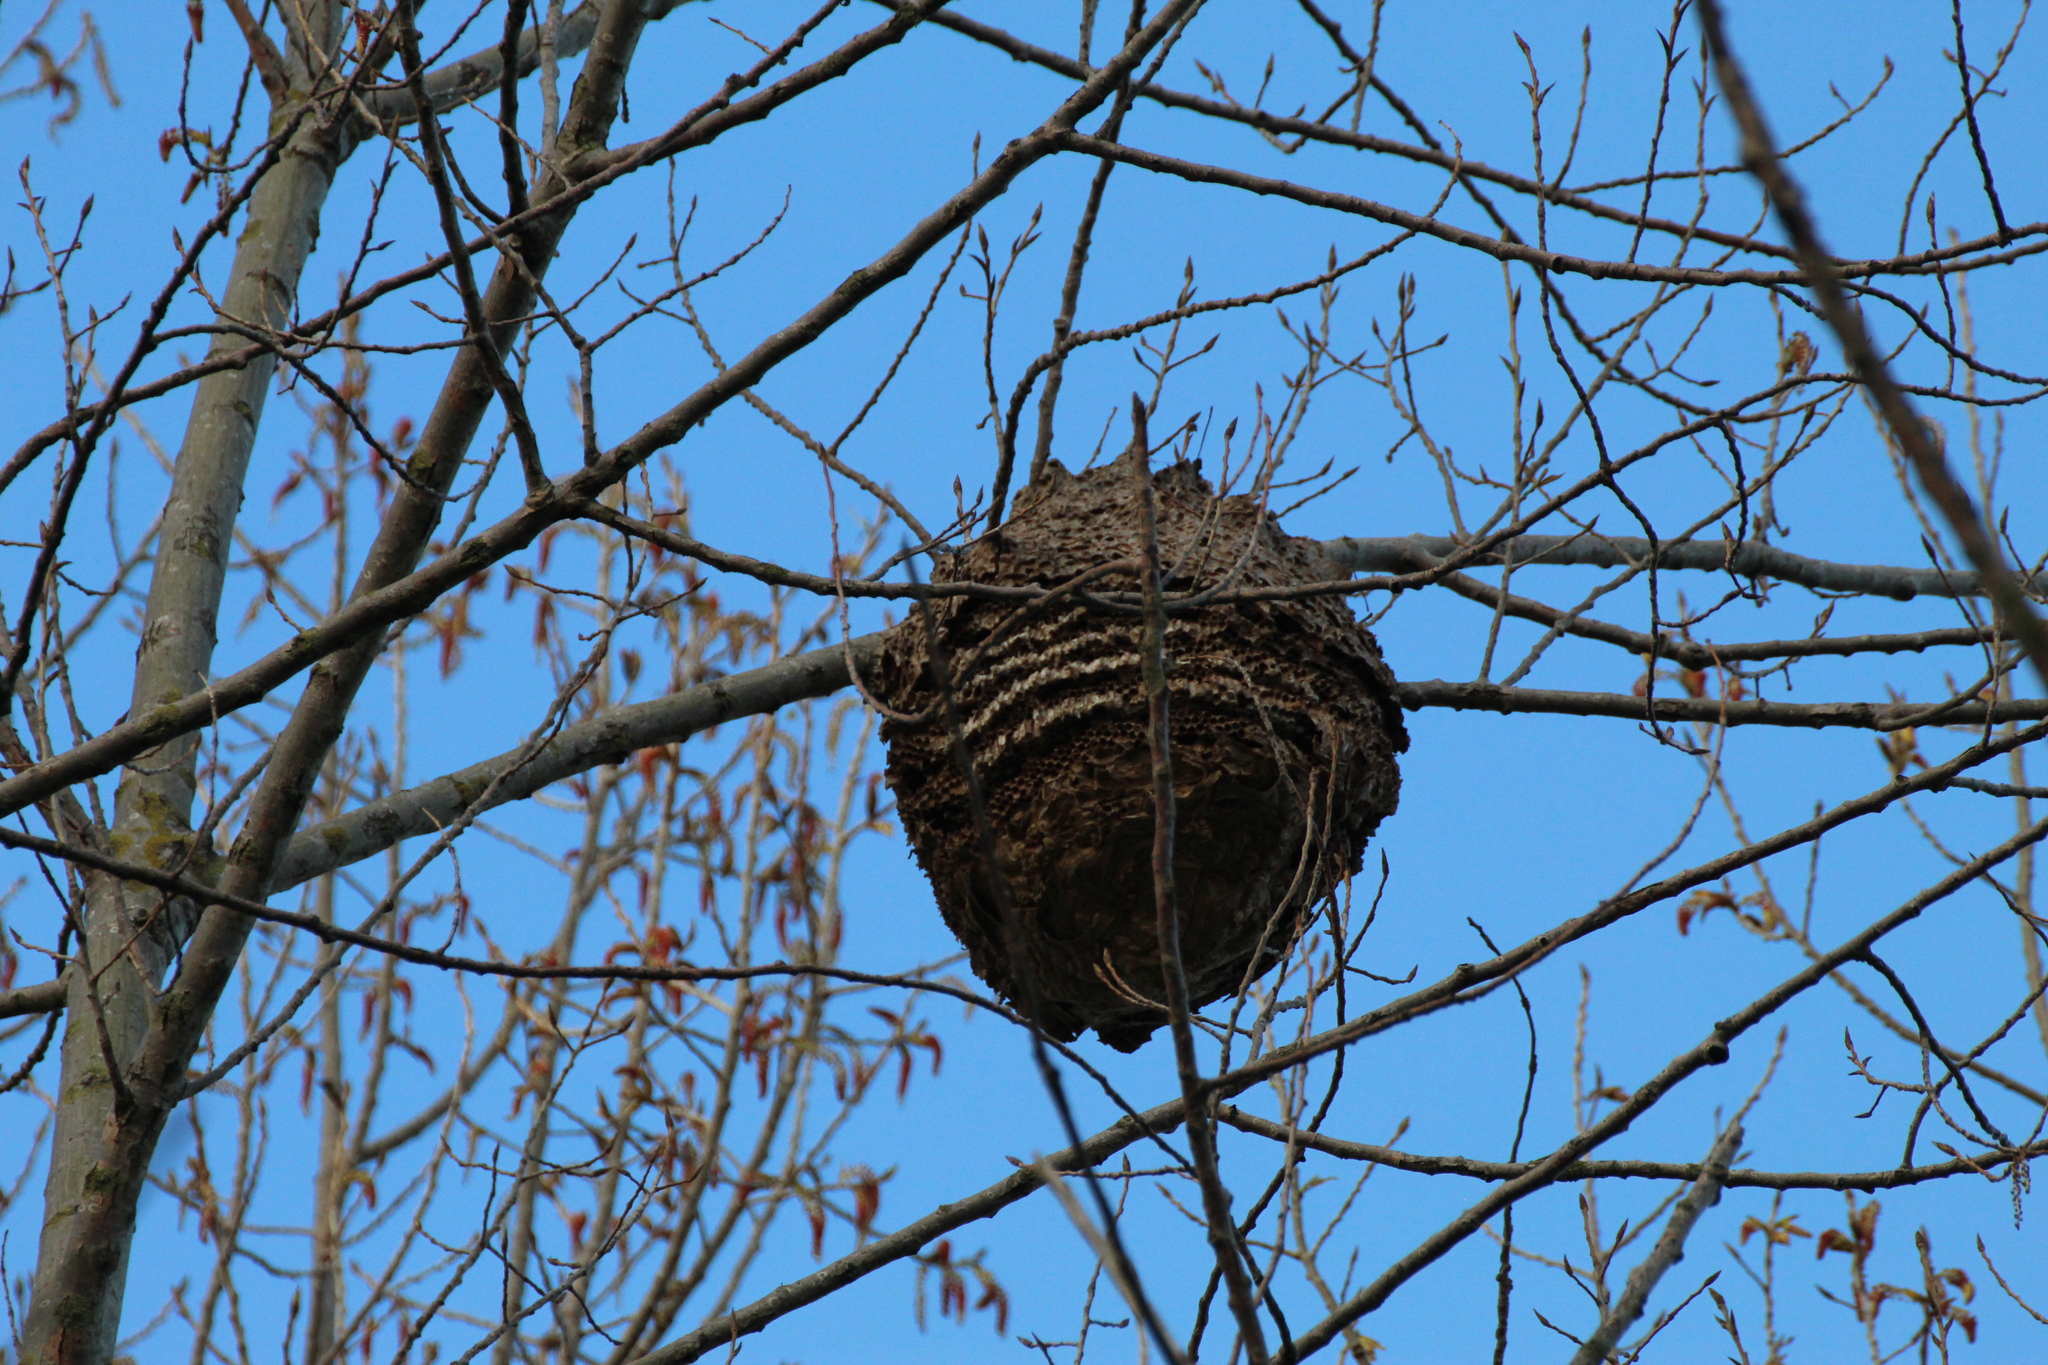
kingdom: Animalia
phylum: Arthropoda
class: Insecta
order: Hymenoptera
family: Vespidae
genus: Vespa
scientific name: Vespa velutina
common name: Asian hornet
